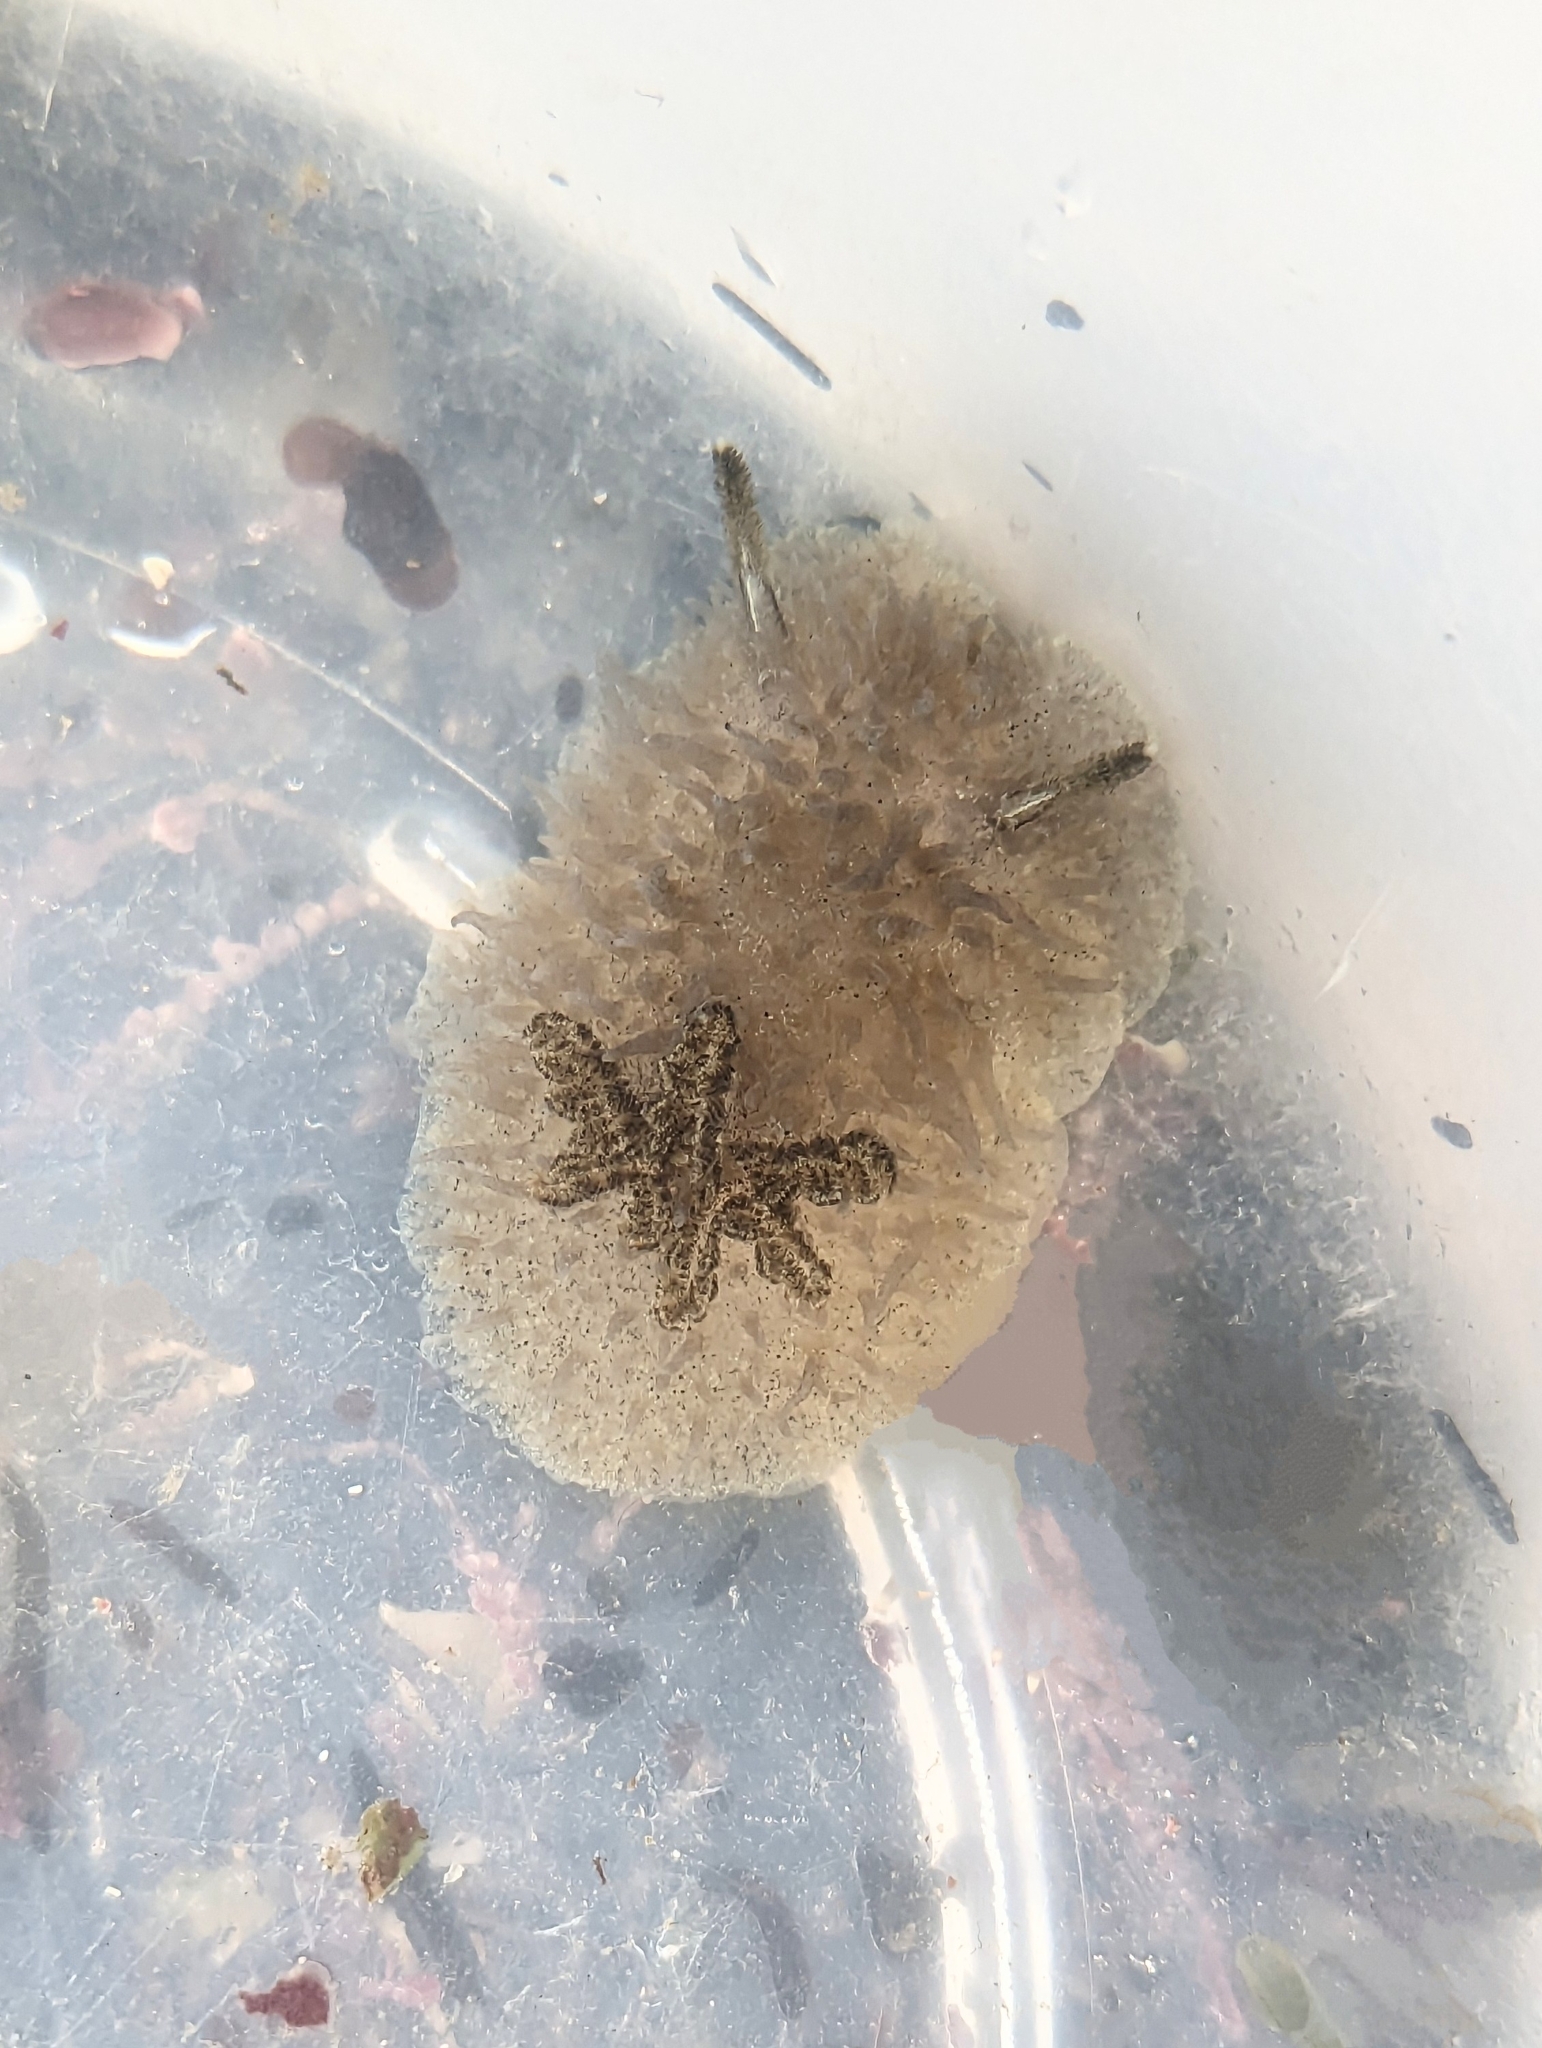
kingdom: Animalia
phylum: Mollusca
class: Gastropoda
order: Nudibranchia
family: Onchidorididae
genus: Acanthodoris
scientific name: Acanthodoris rhodoceras
